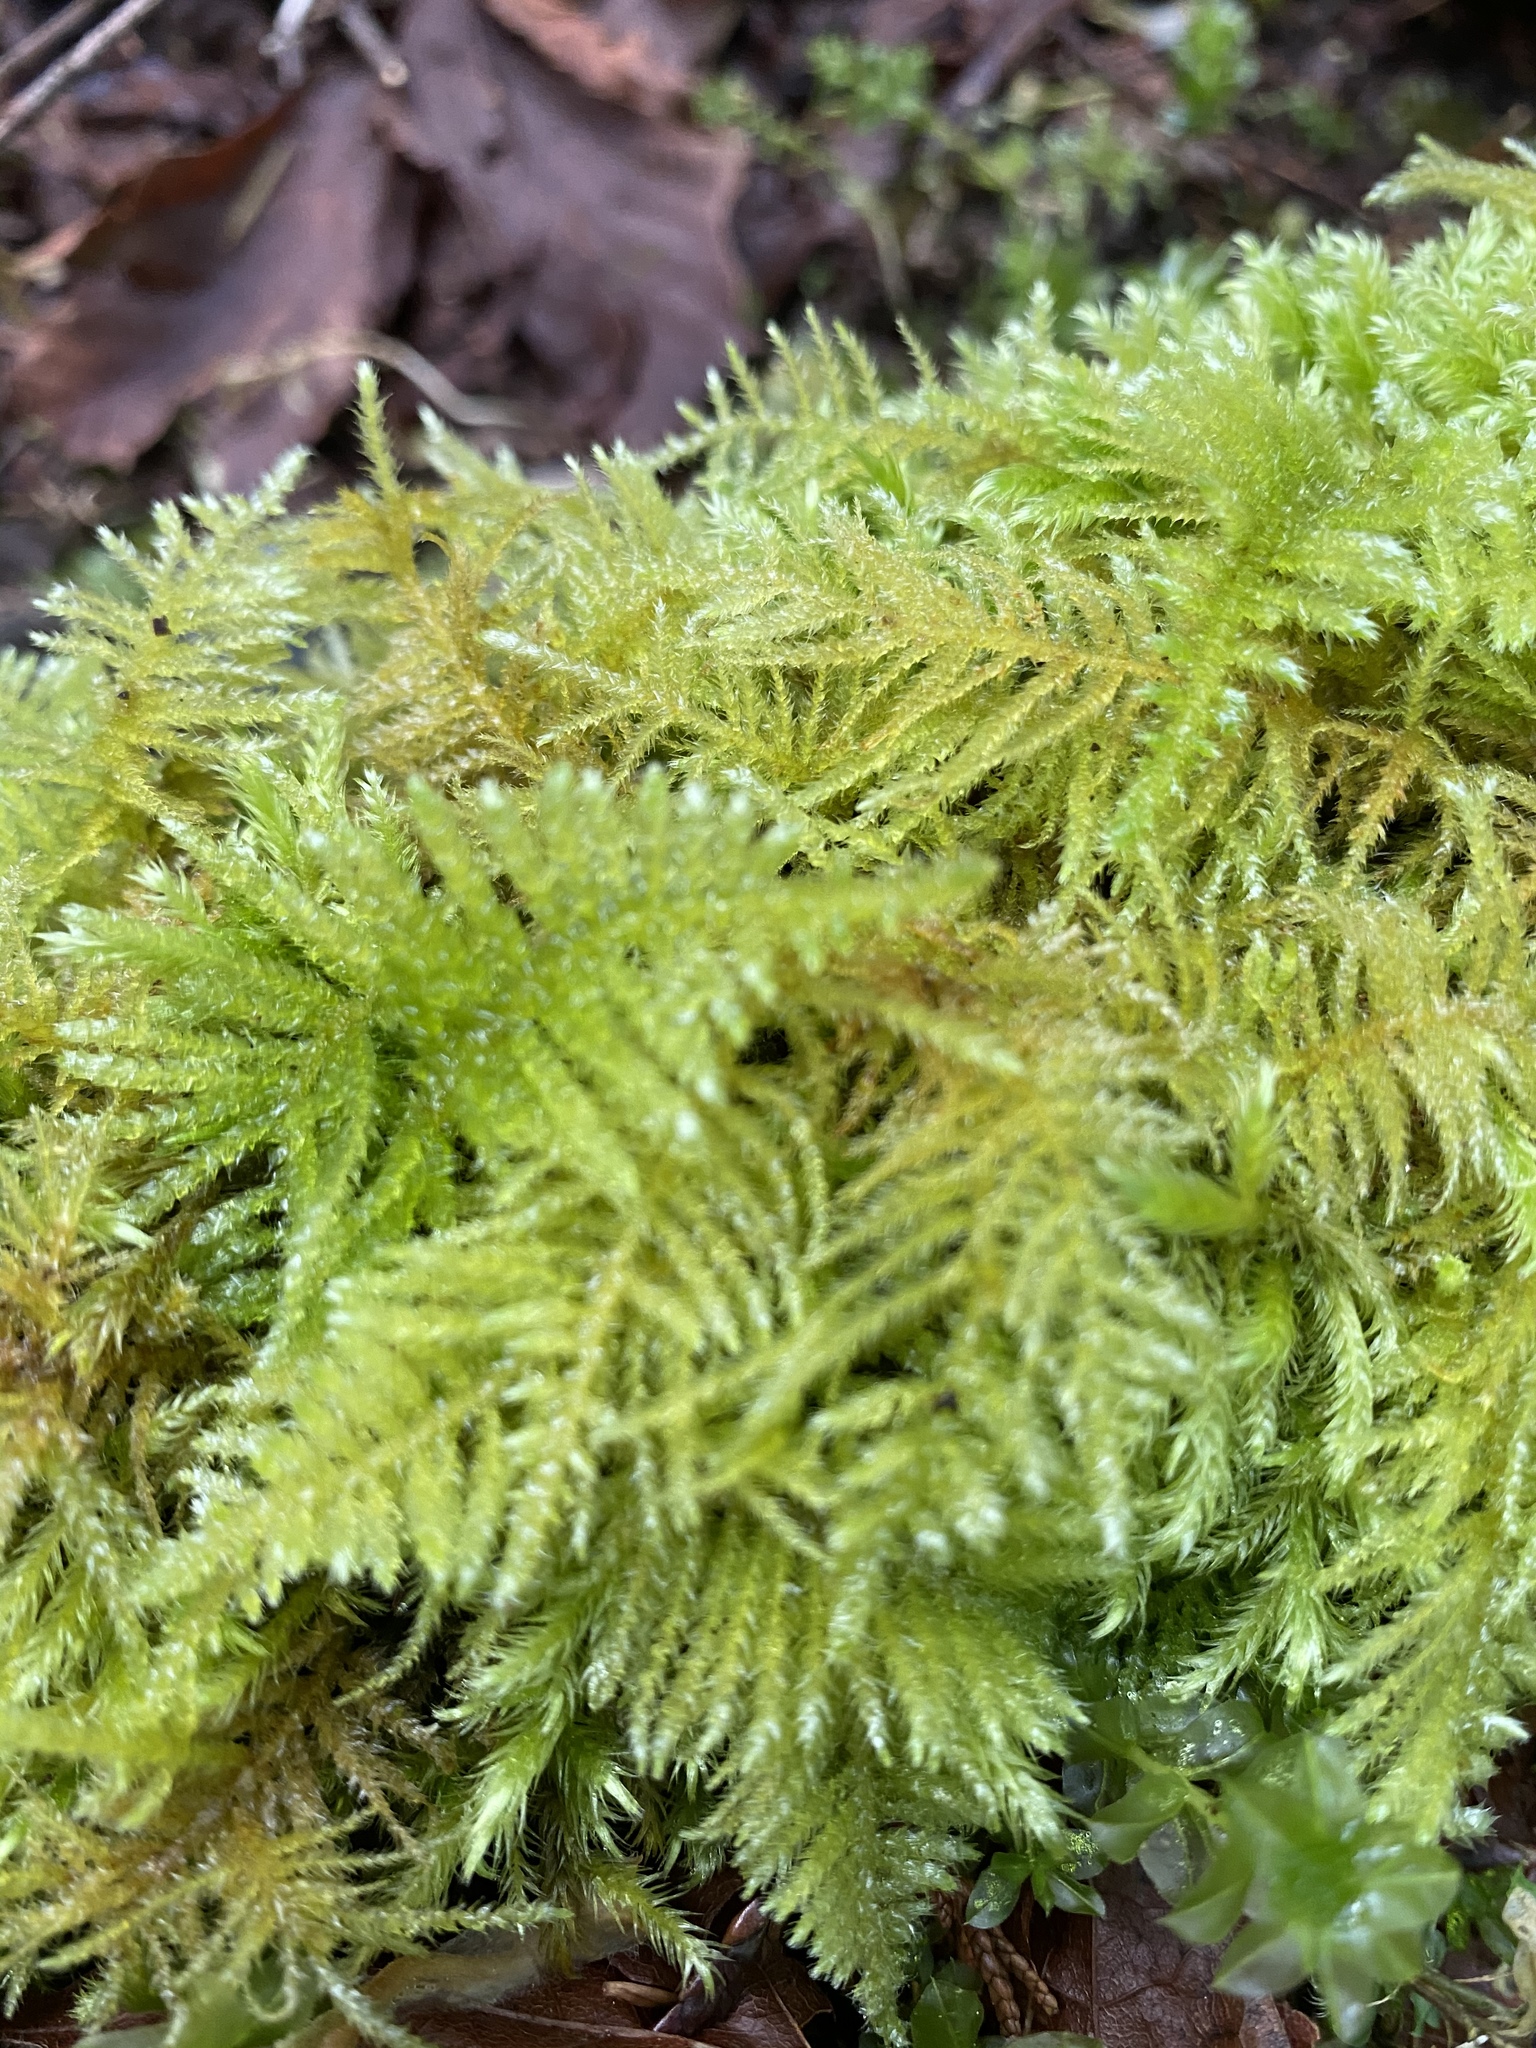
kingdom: Plantae
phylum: Bryophyta
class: Bryopsida
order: Hypnales
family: Brachytheciaceae
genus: Kindbergia
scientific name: Kindbergia oregana
